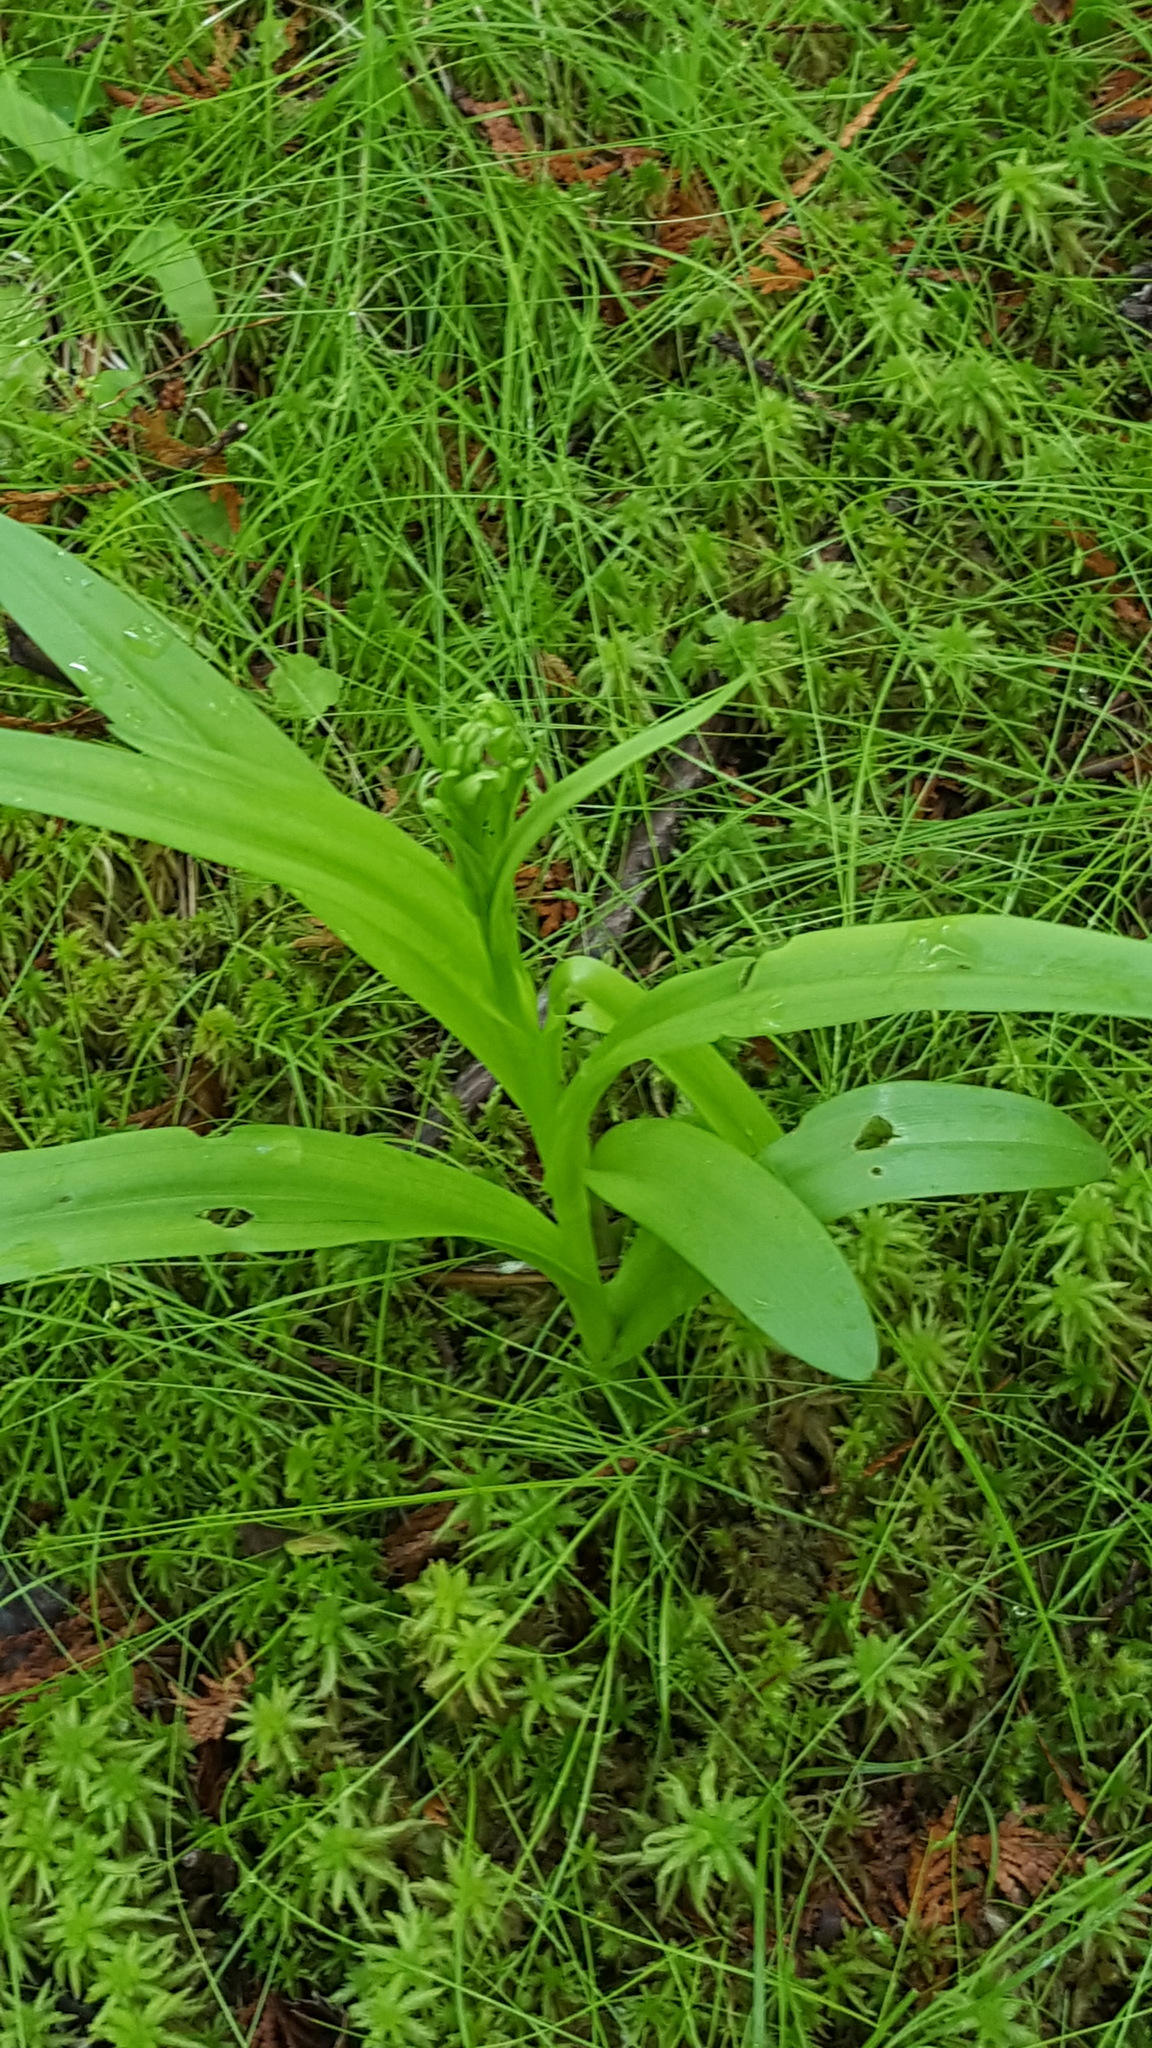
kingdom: Plantae
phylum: Tracheophyta
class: Liliopsida
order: Asparagales
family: Orchidaceae
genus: Platanthera
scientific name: Platanthera huronensis
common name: Fragrant green orchid
